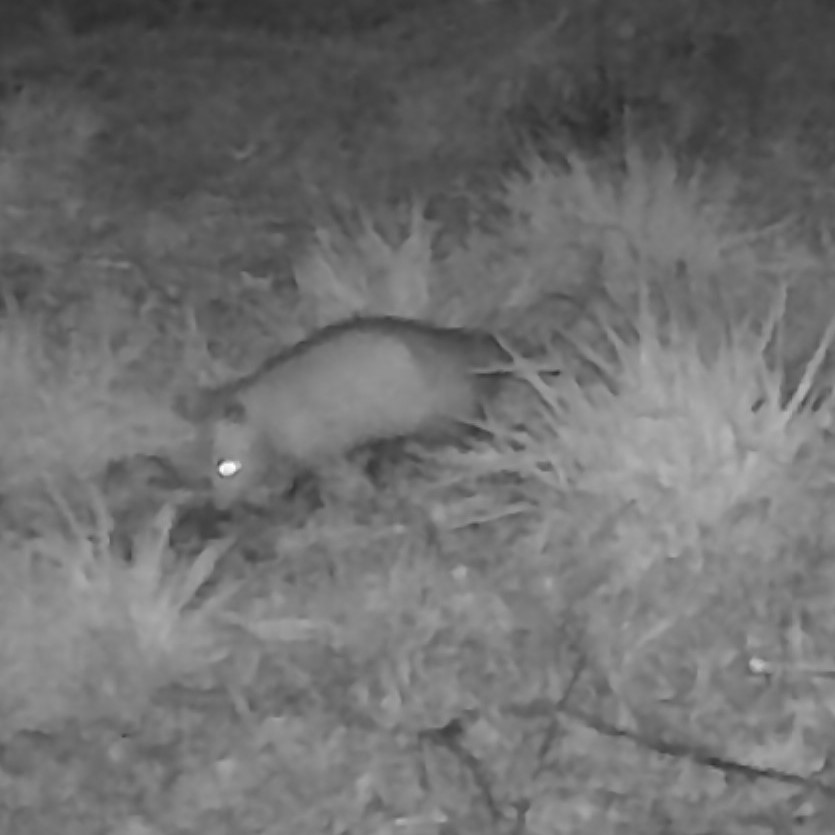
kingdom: Animalia
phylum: Chordata
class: Mammalia
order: Didelphimorphia
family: Didelphidae
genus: Didelphis
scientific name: Didelphis virginiana
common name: Virginia opossum
